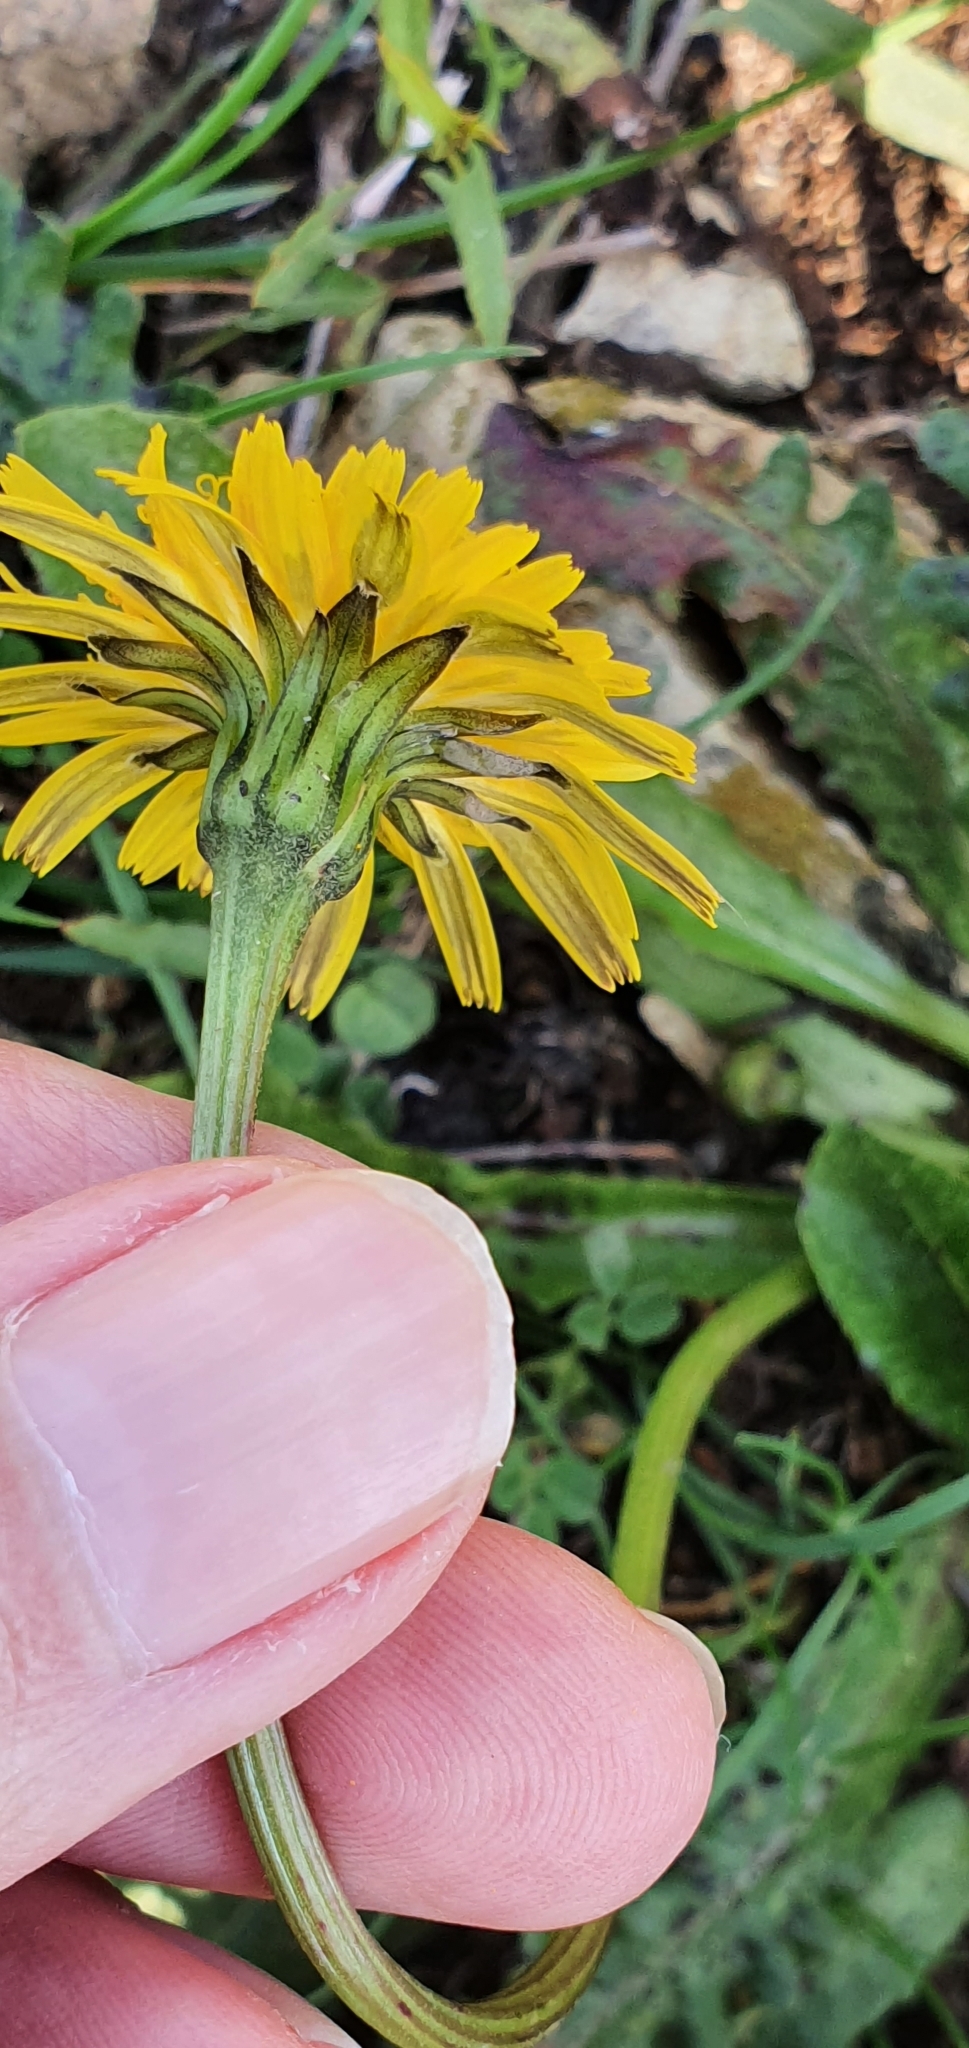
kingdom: Plantae
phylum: Tracheophyta
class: Magnoliopsida
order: Asterales
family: Asteraceae
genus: Hypochaeris
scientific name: Hypochaeris radicata
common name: Flatweed
